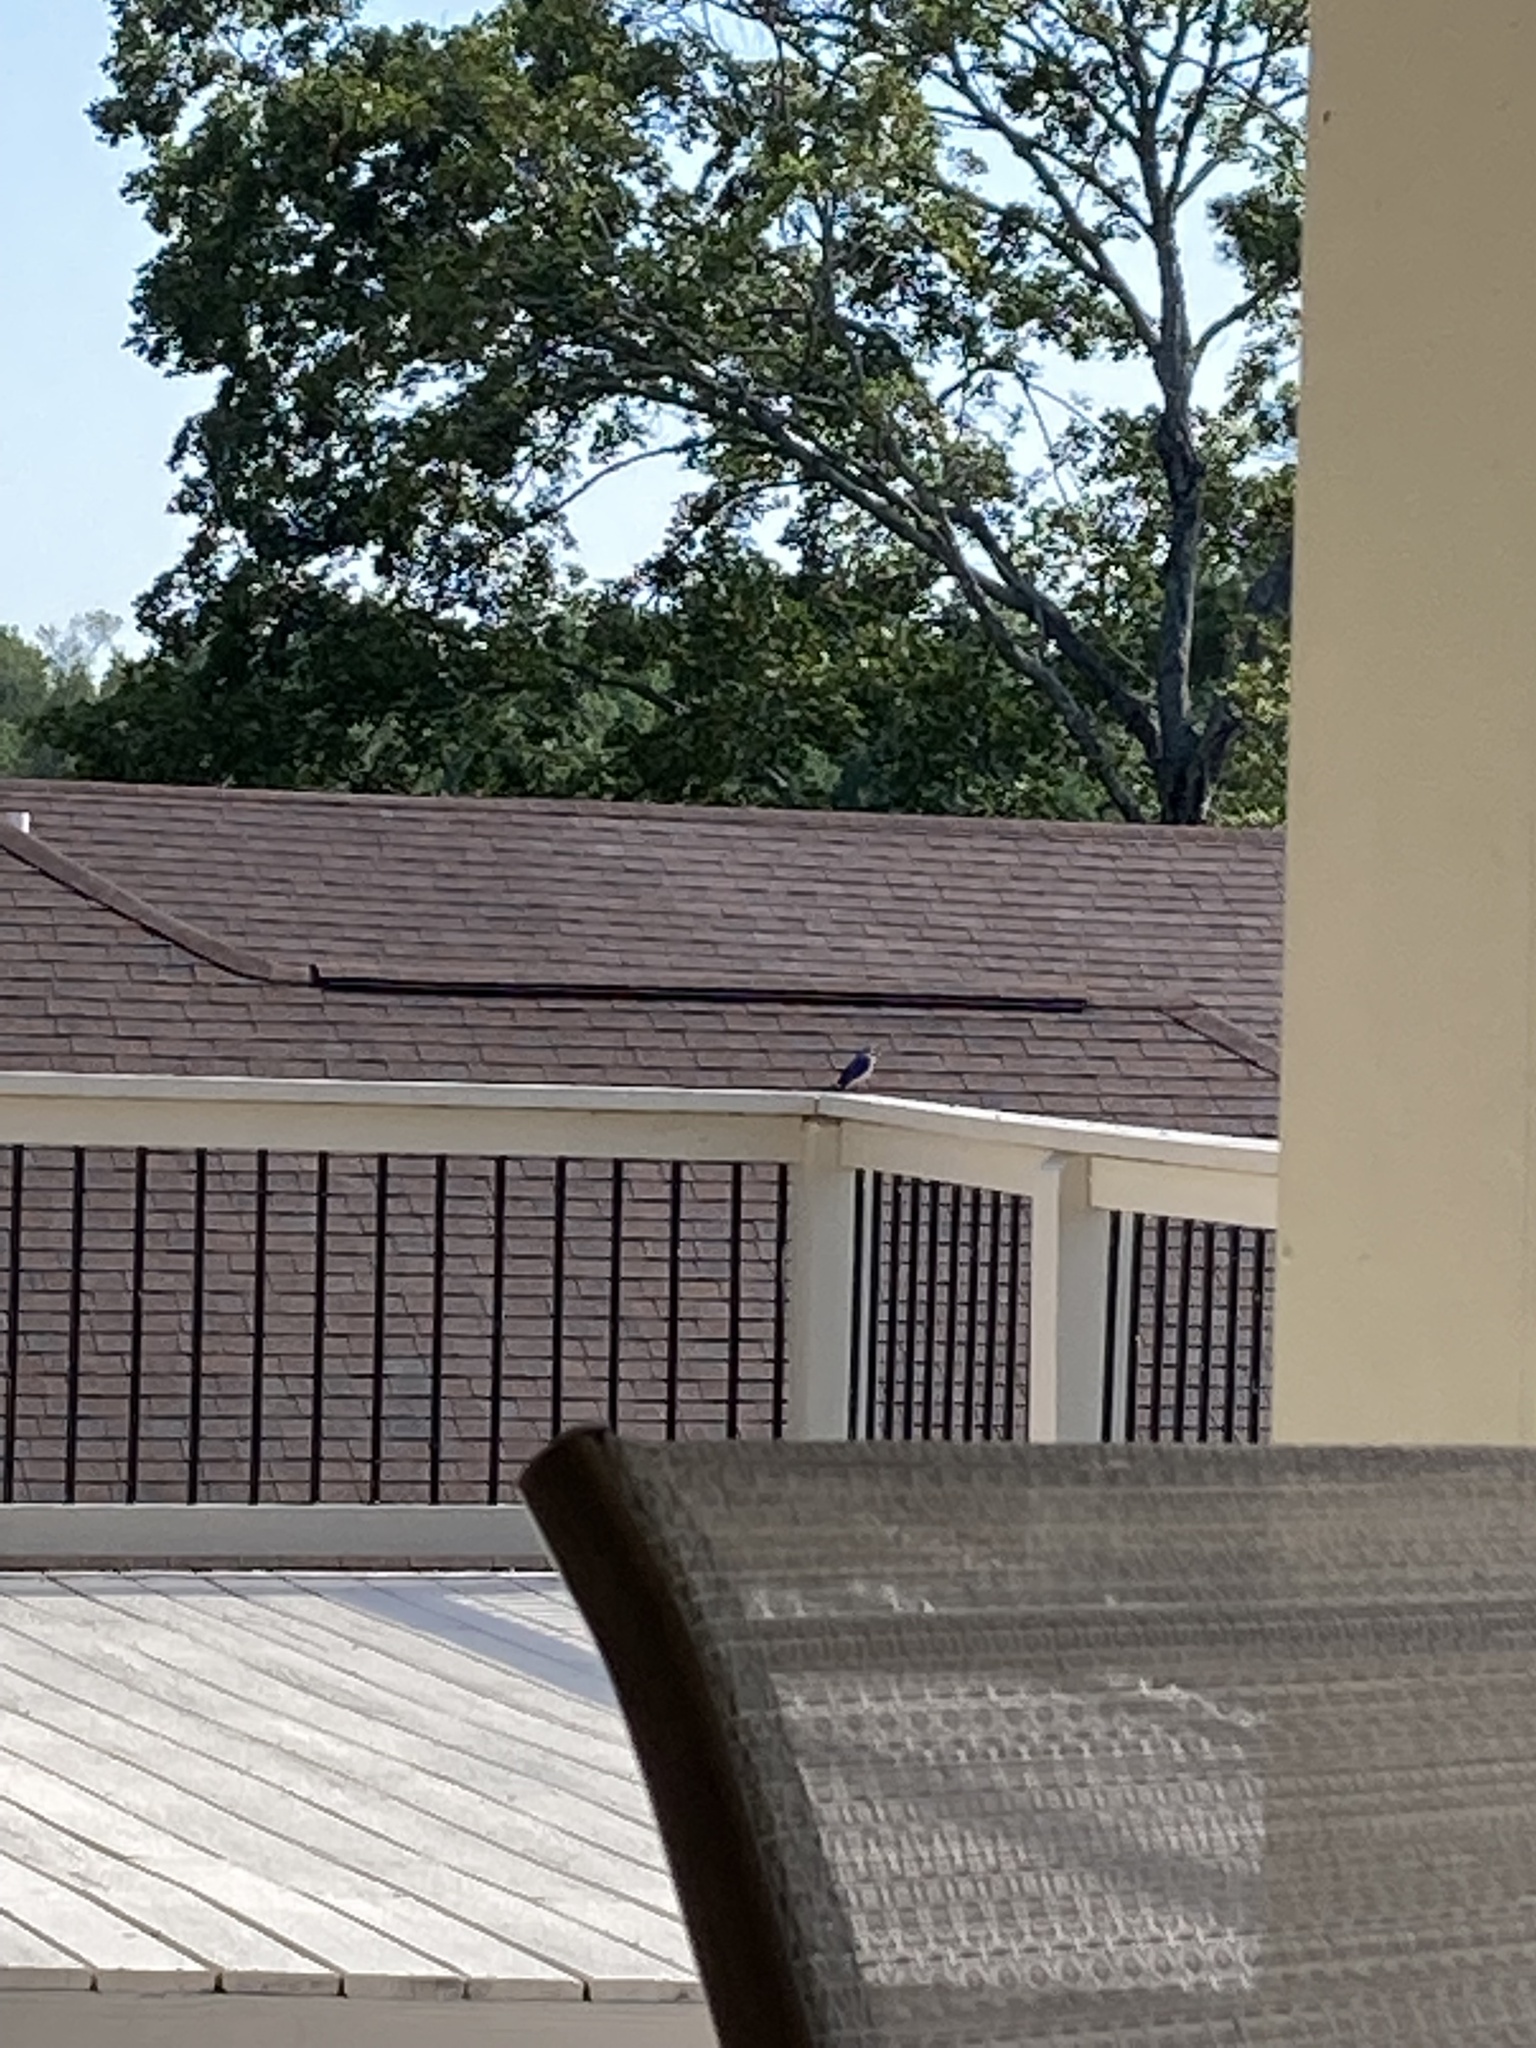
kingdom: Animalia
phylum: Chordata
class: Aves
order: Passeriformes
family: Turdidae
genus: Sialia
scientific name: Sialia sialis
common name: Eastern bluebird
